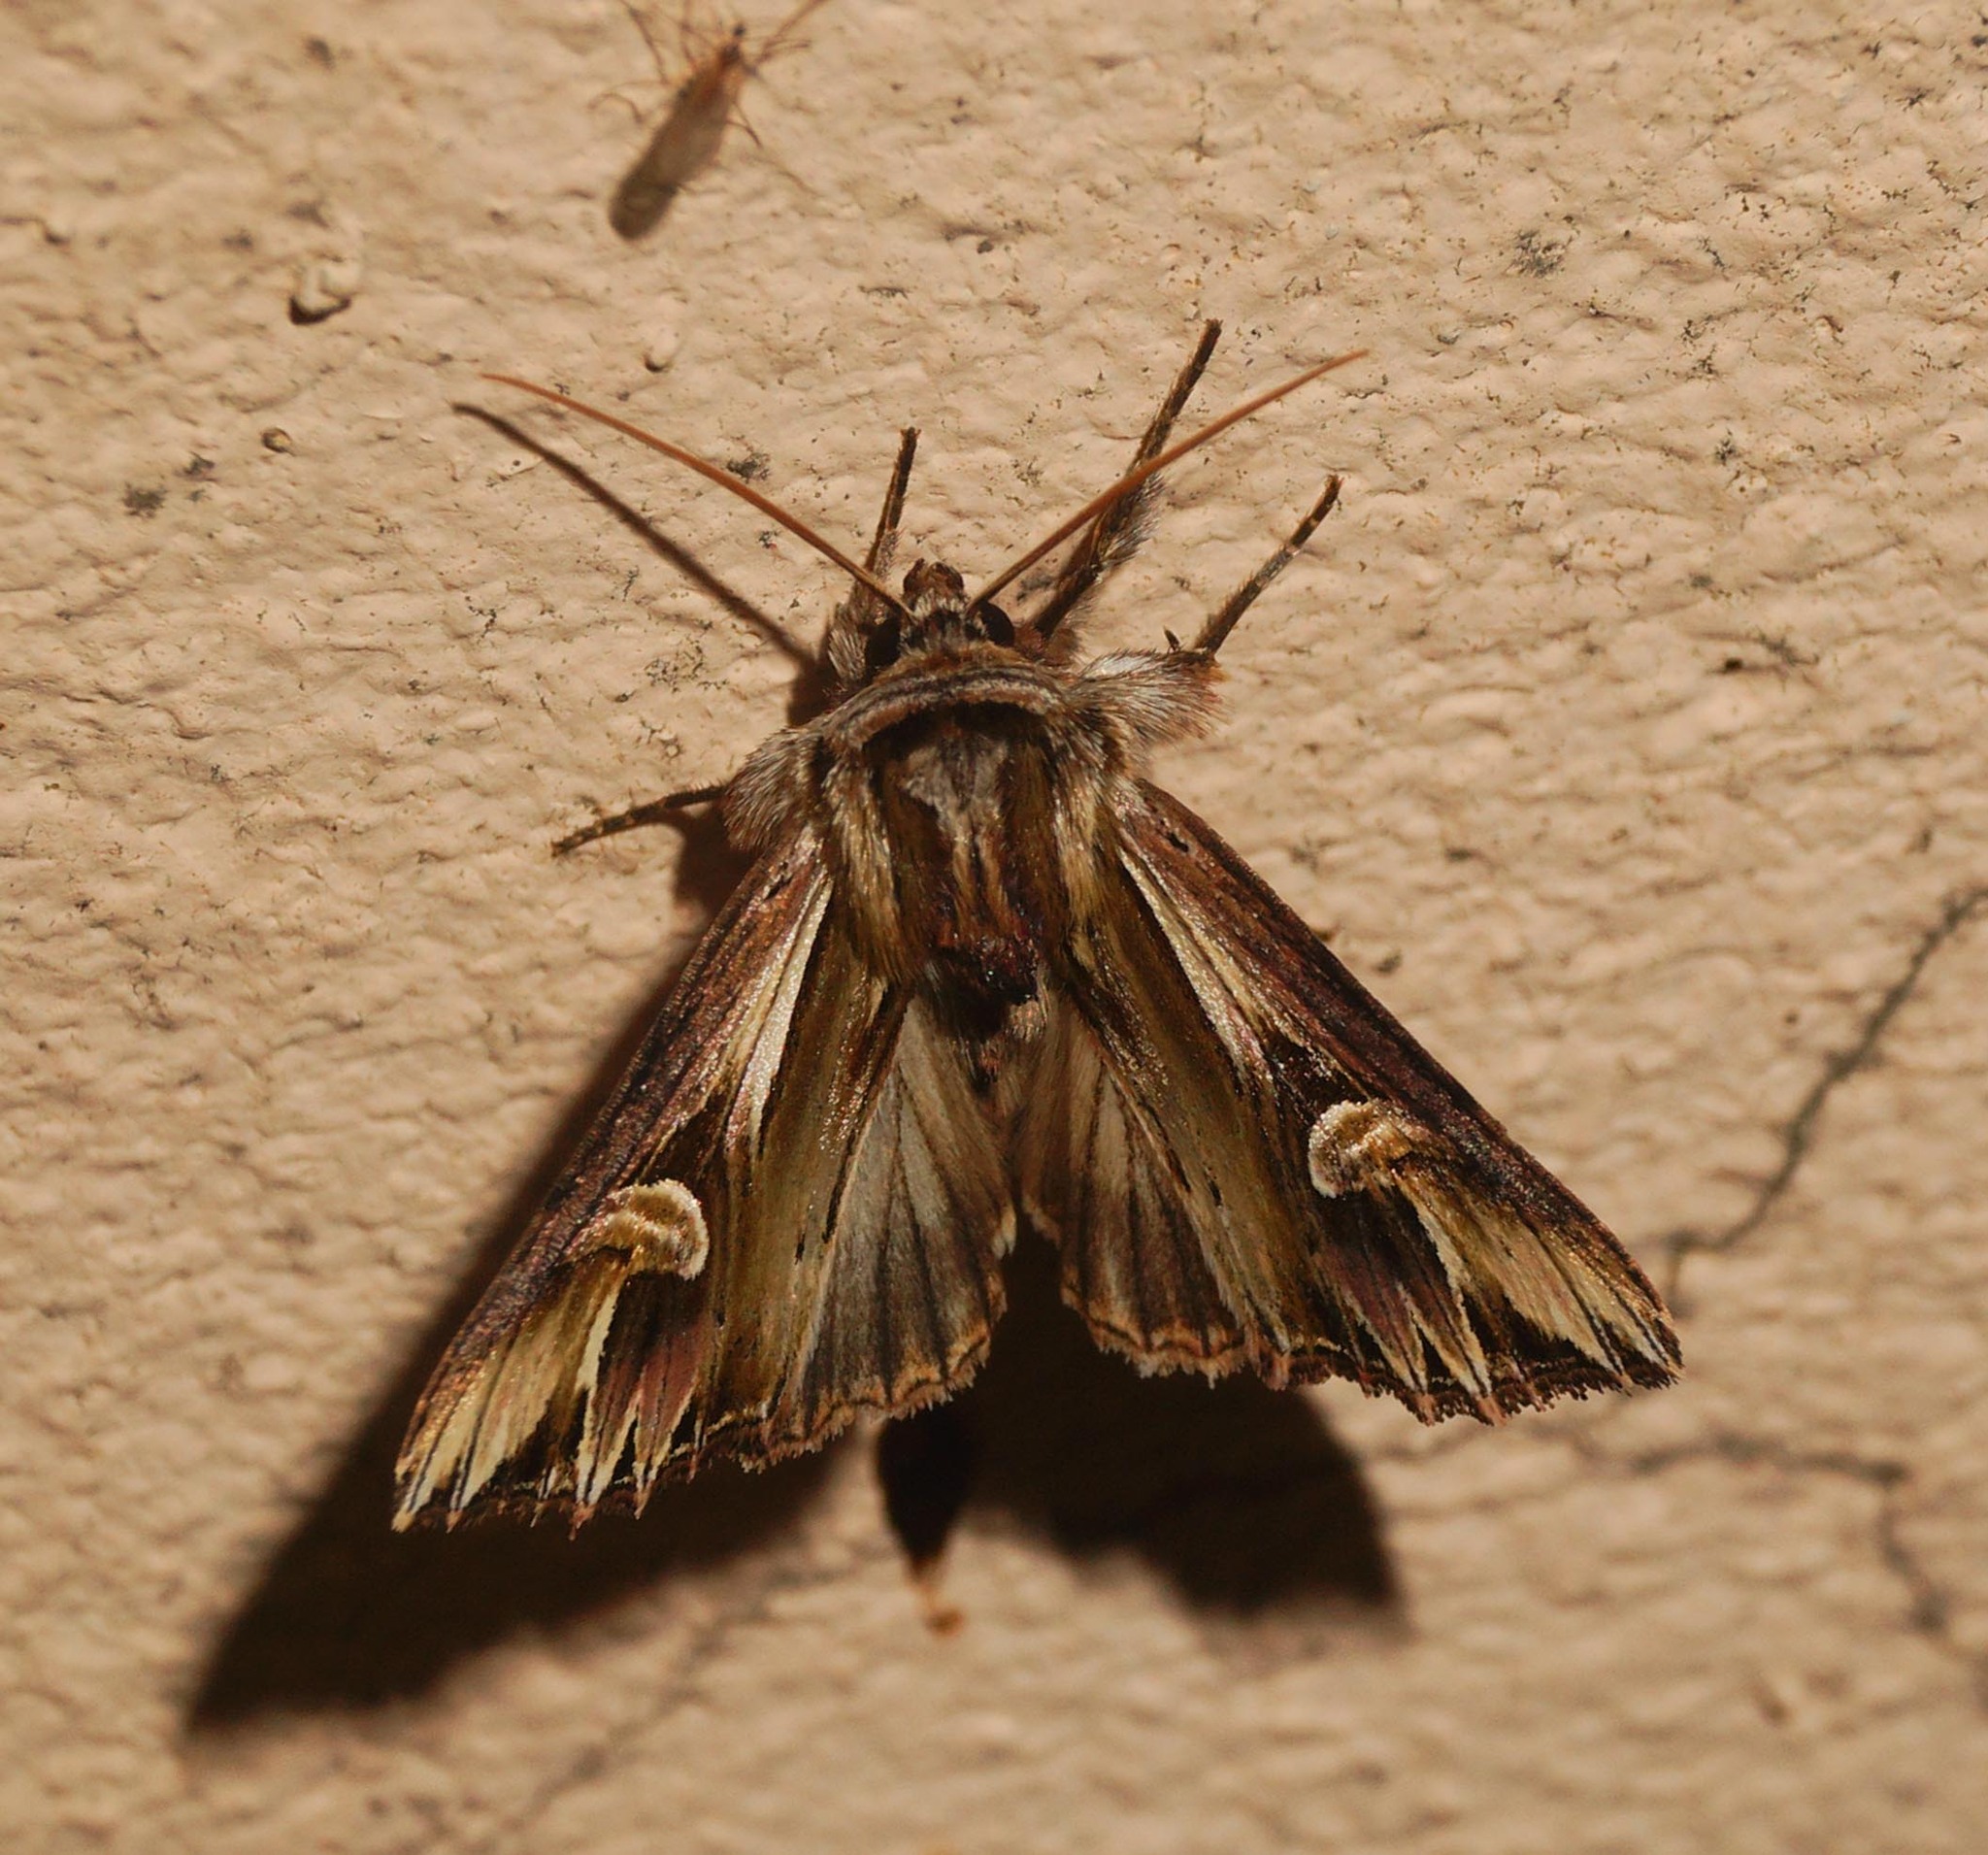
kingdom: Animalia
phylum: Arthropoda
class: Insecta
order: Lepidoptera
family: Noctuidae
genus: Actinotia
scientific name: Actinotia polyodon
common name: Purple cloud
